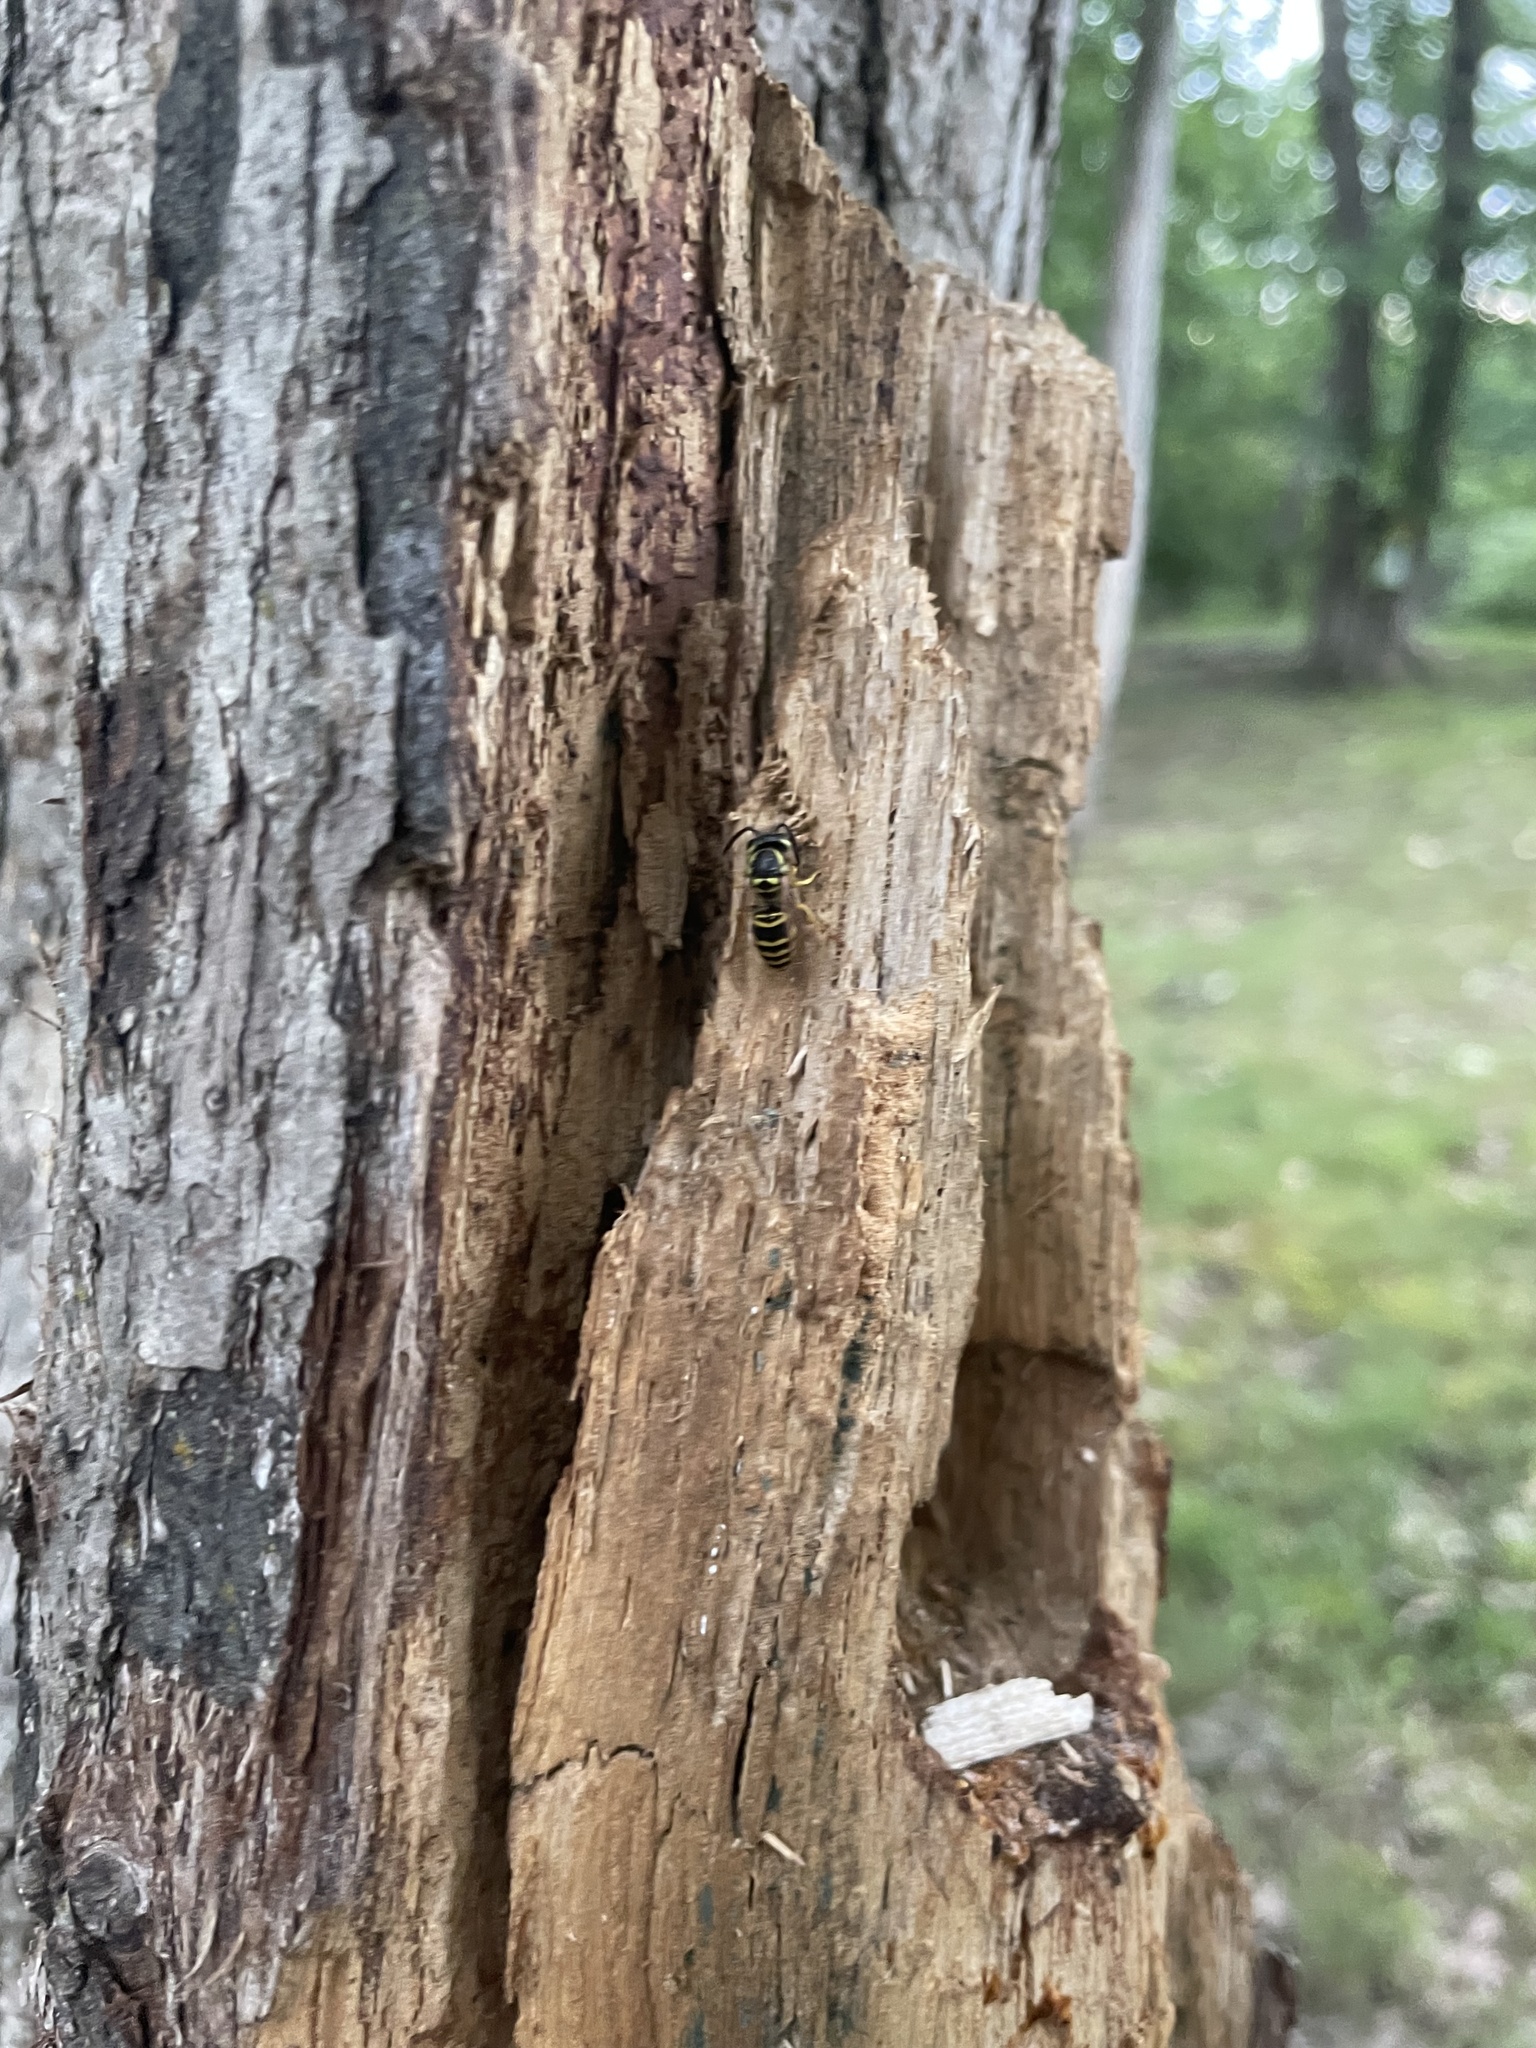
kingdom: Animalia
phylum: Arthropoda
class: Insecta
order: Hymenoptera
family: Vespidae
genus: Vespula
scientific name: Vespula maculifrons
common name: Eastern yellowjacket
